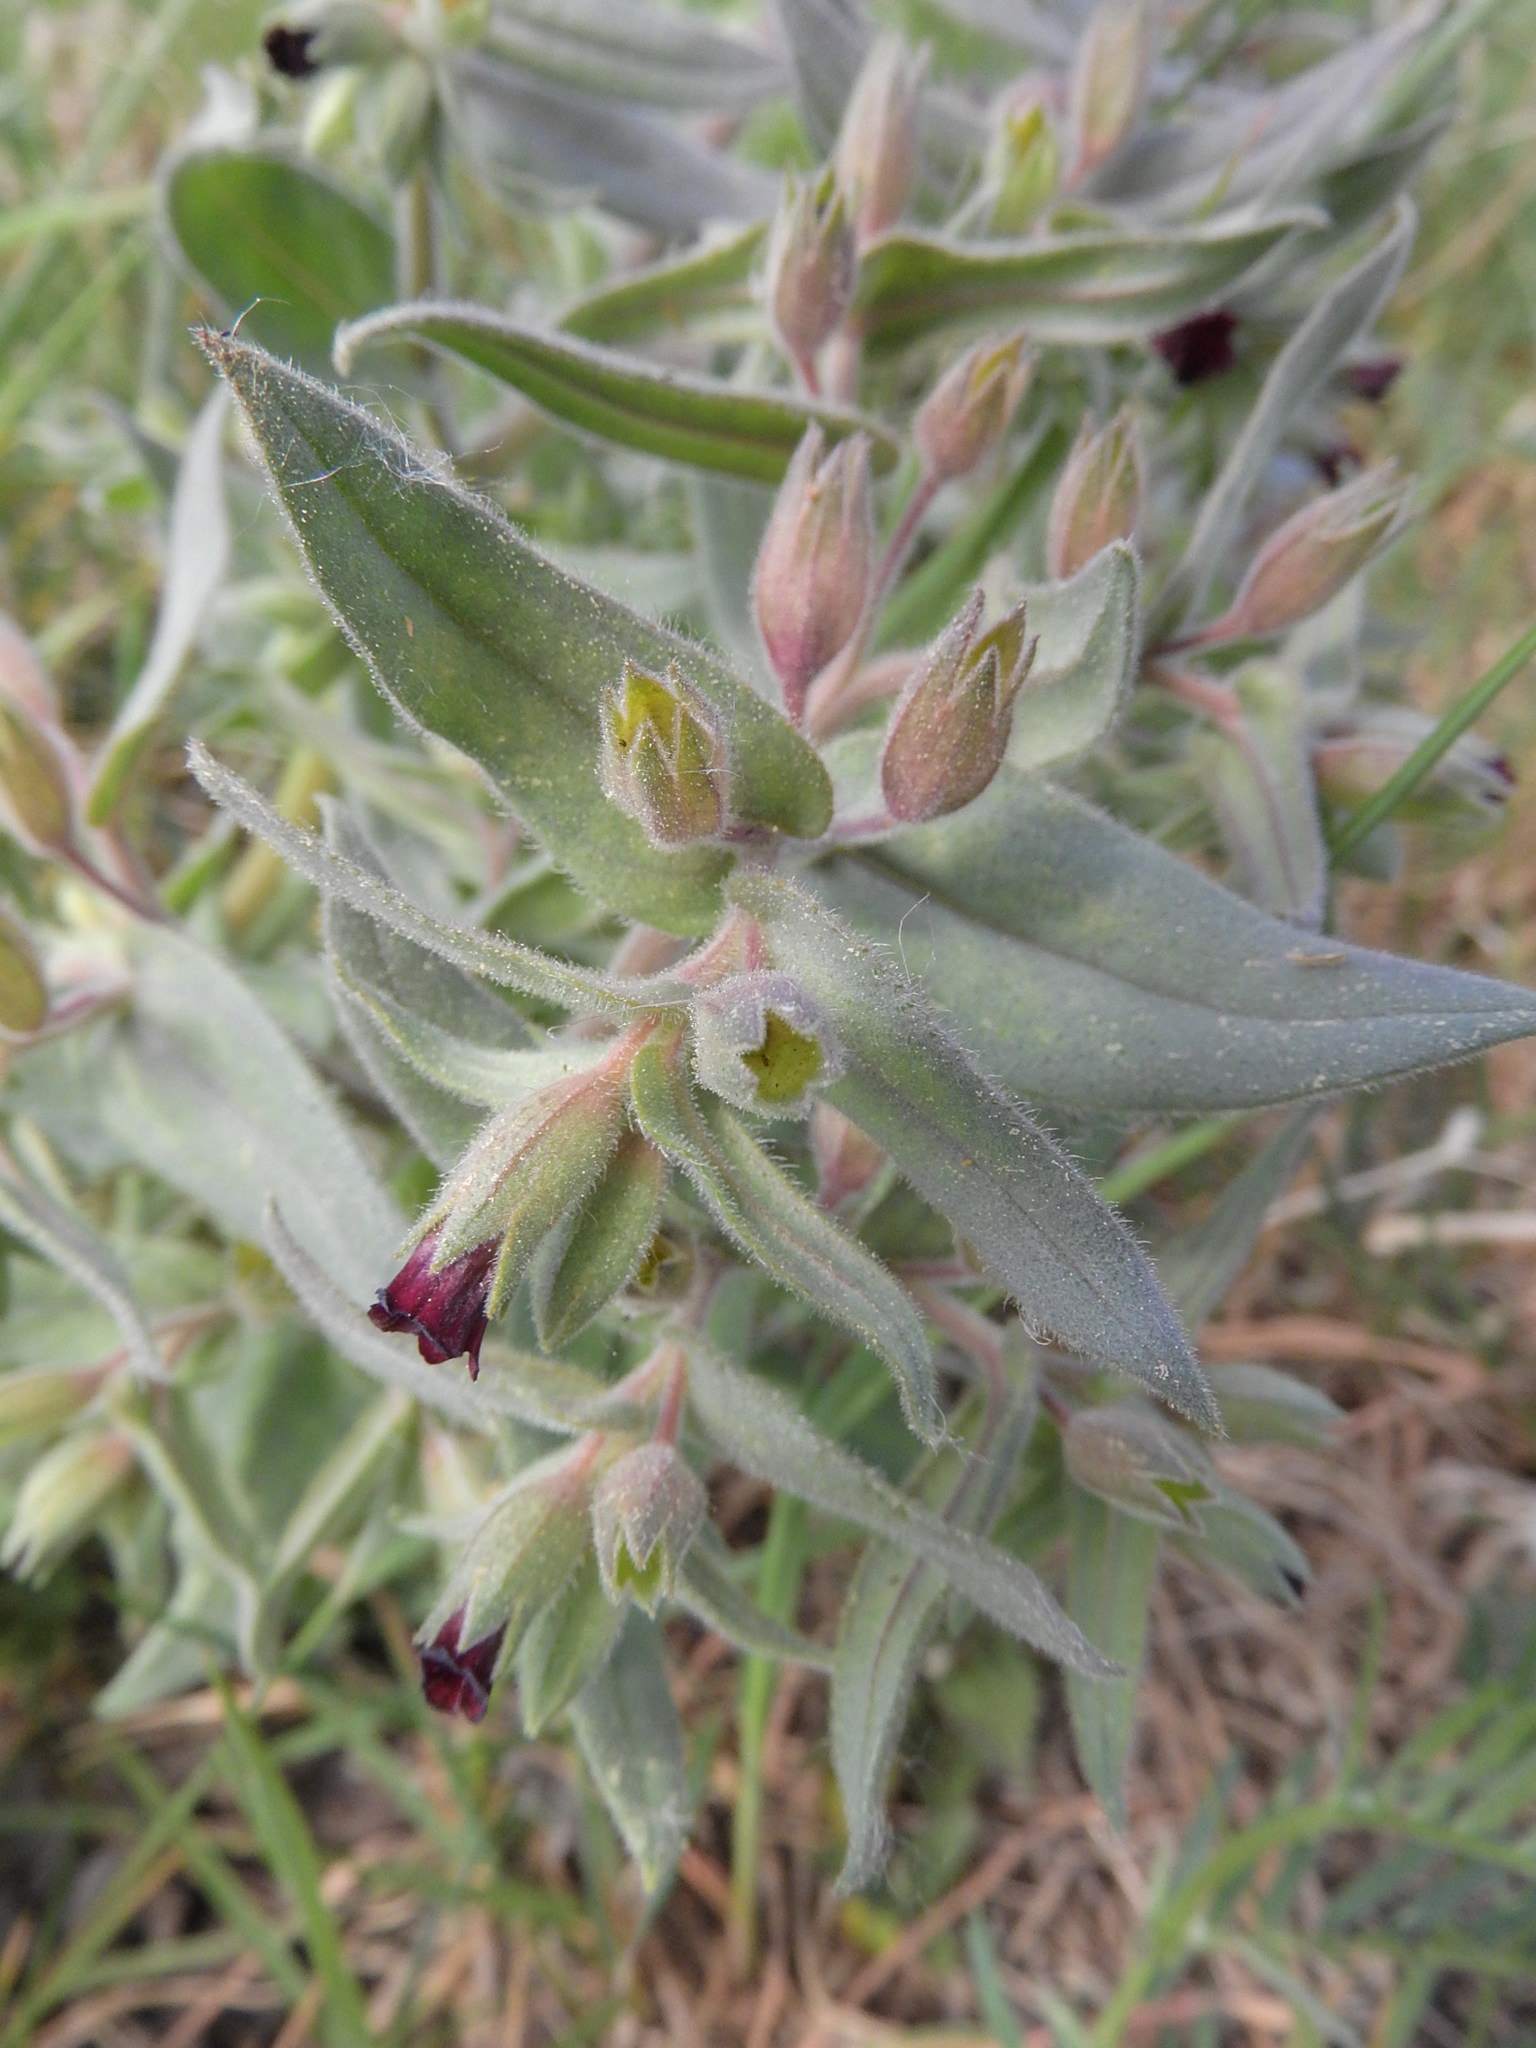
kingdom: Plantae
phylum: Tracheophyta
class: Magnoliopsida
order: Boraginales
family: Boraginaceae
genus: Nonea
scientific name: Nonea pulla
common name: Brown nonea
